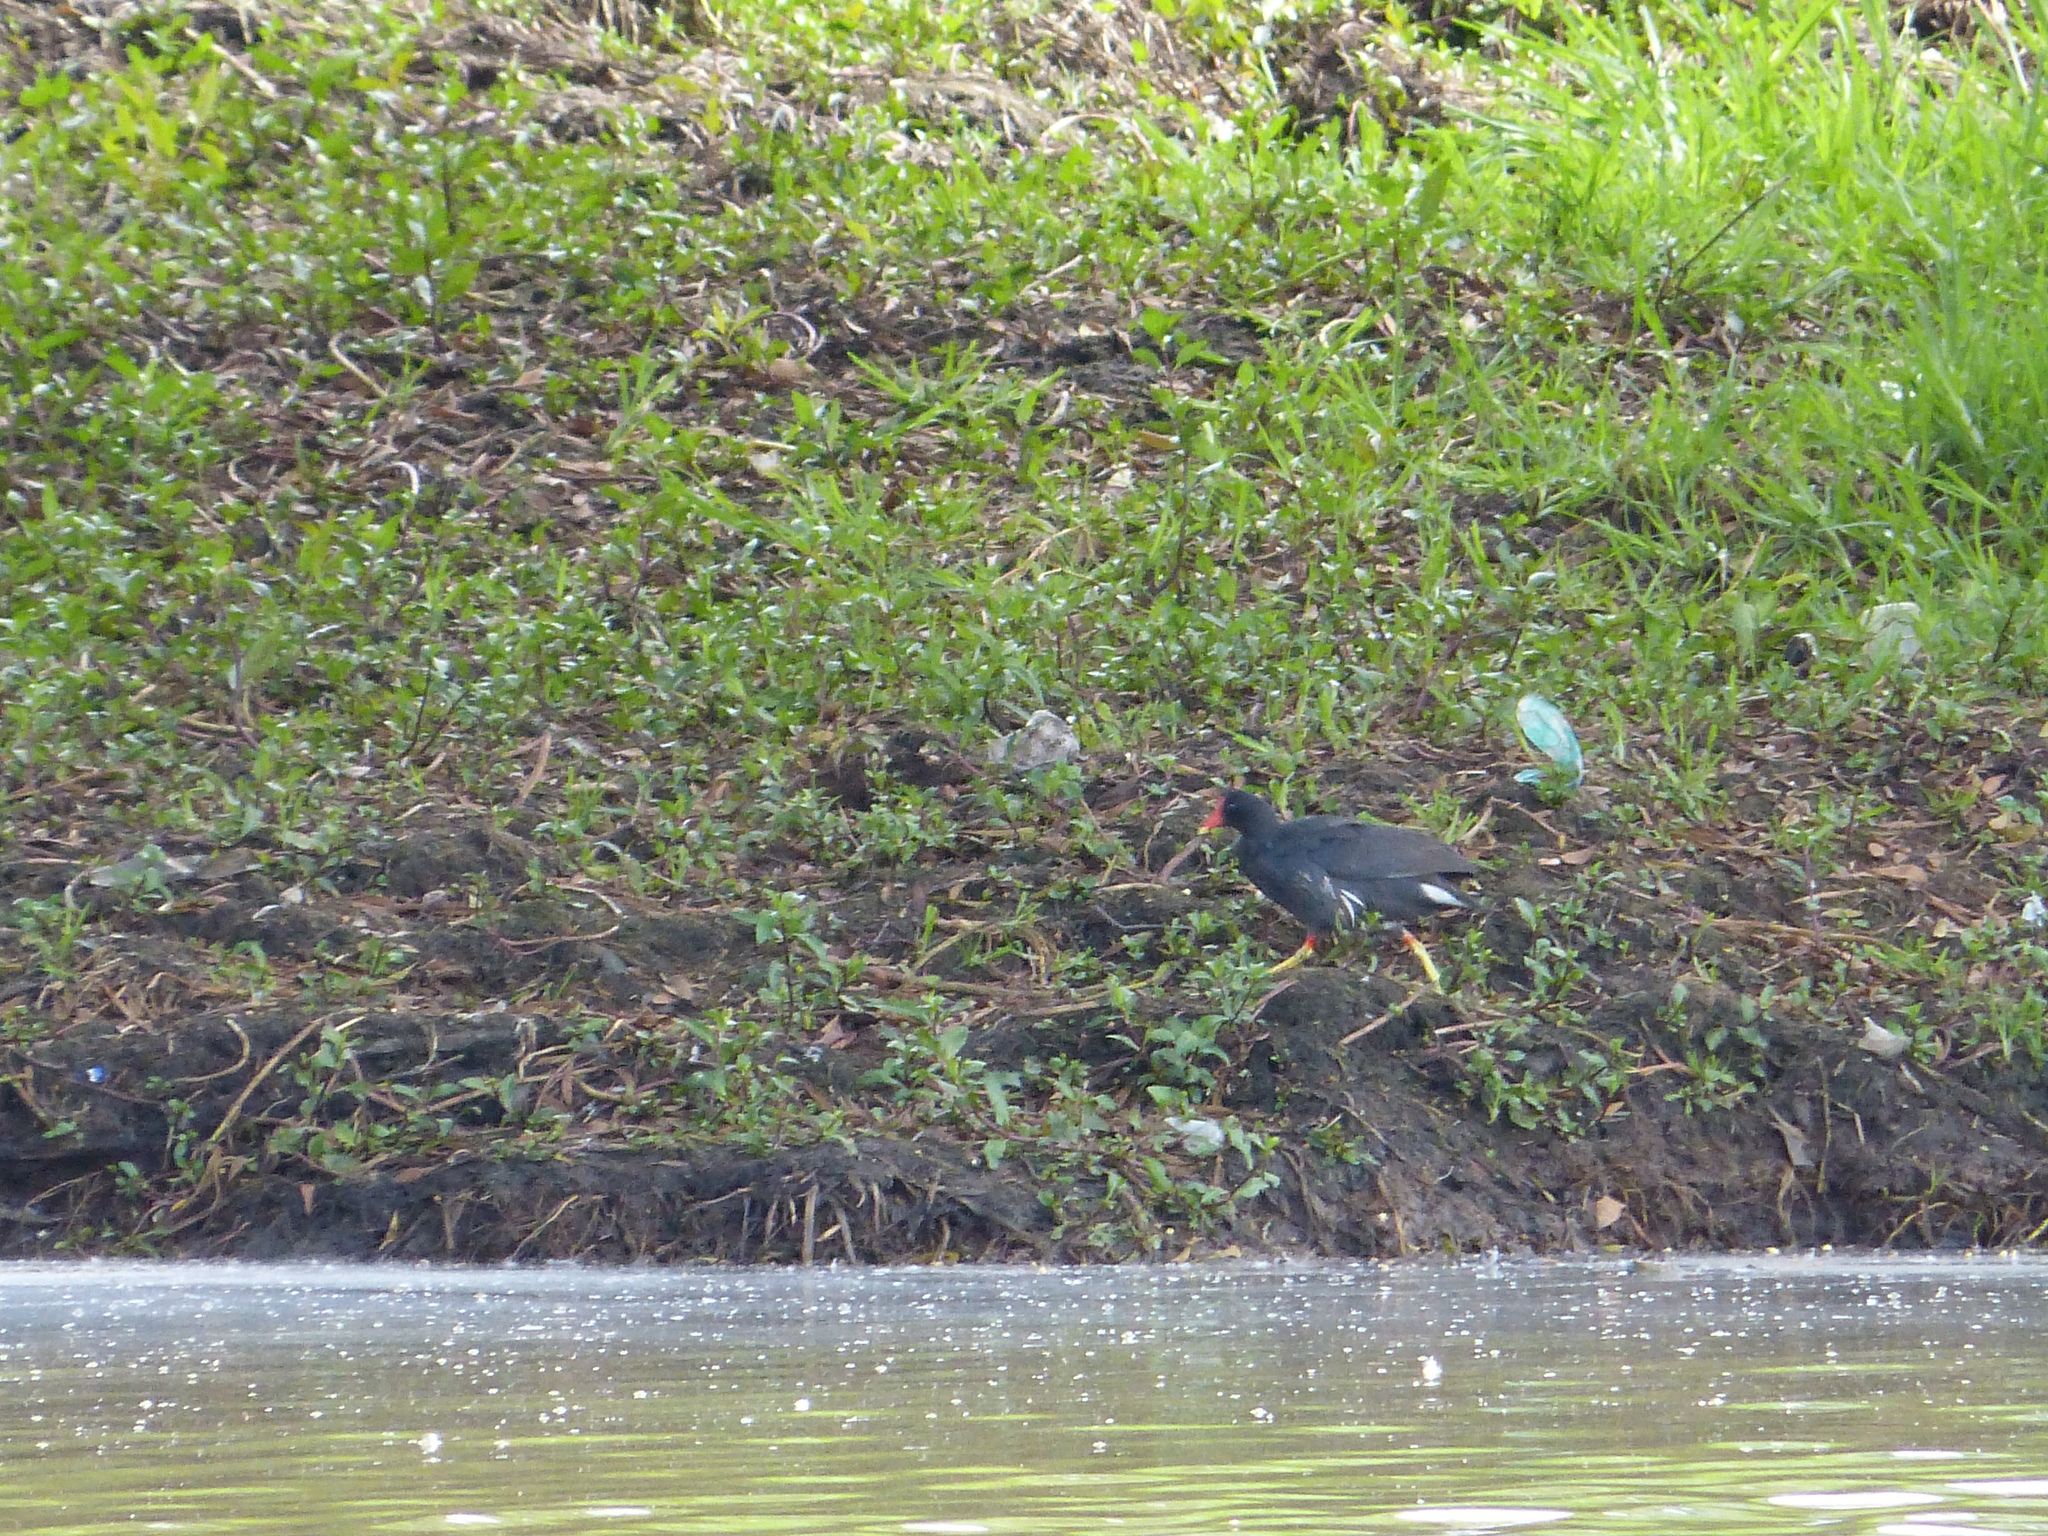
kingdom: Animalia
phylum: Chordata
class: Aves
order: Gruiformes
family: Rallidae
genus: Gallinula
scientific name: Gallinula chloropus
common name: Common moorhen
